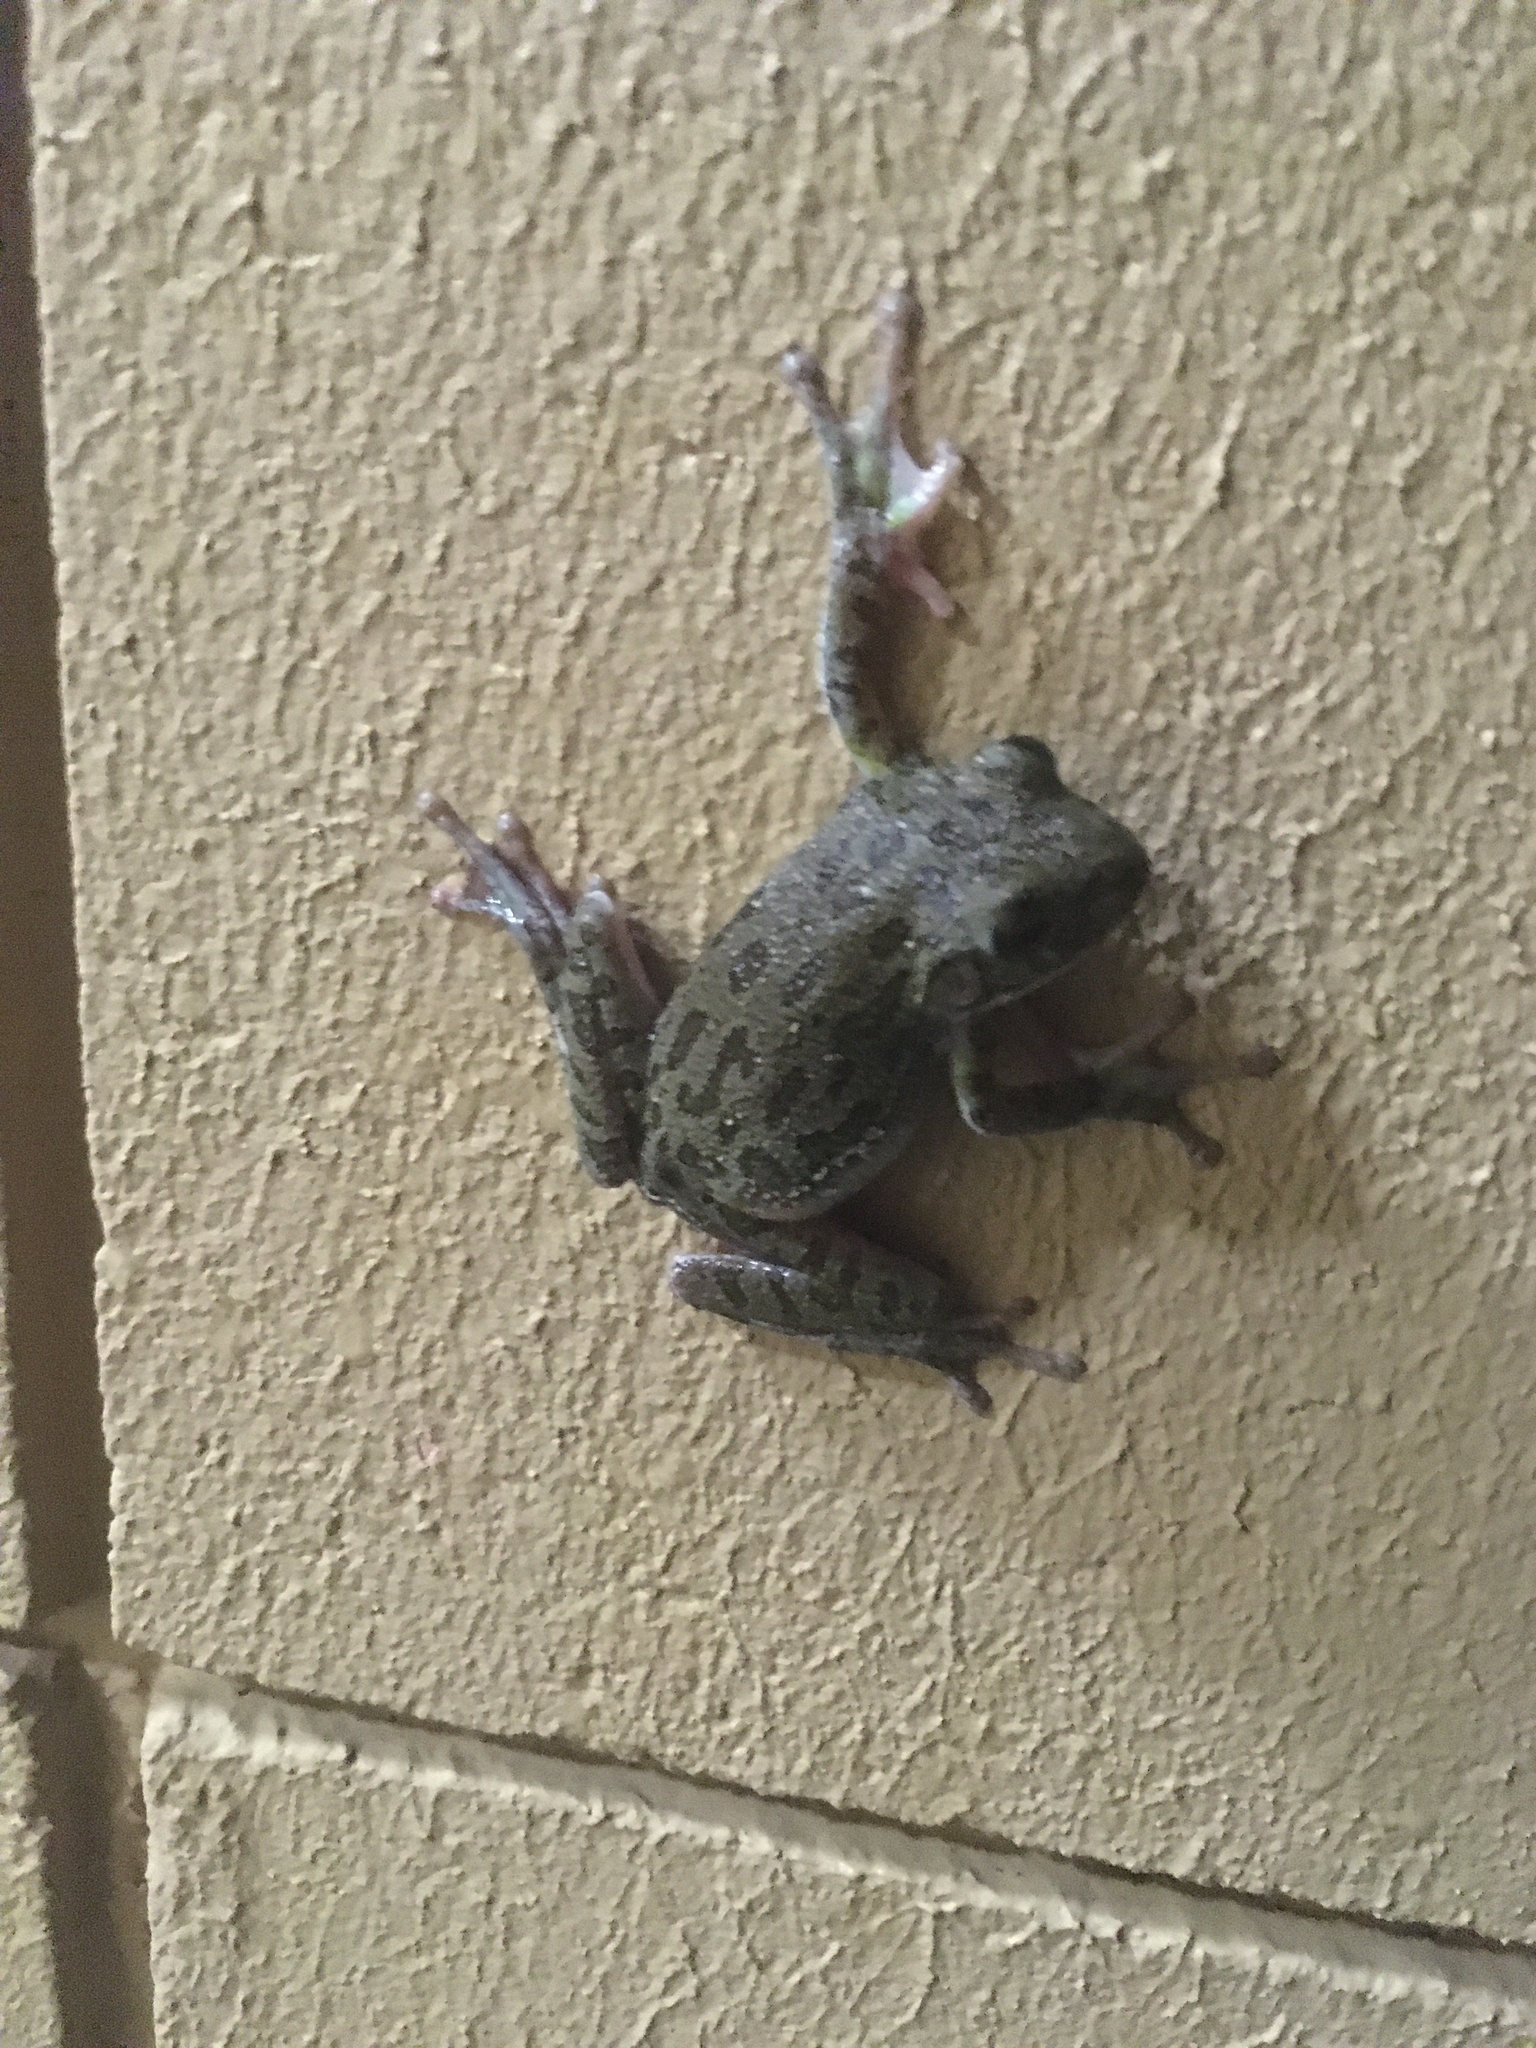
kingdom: Animalia
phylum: Chordata
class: Amphibia
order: Anura
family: Hylidae
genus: Dryophytes
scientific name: Dryophytes gratiosus
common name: Barking treefrog
